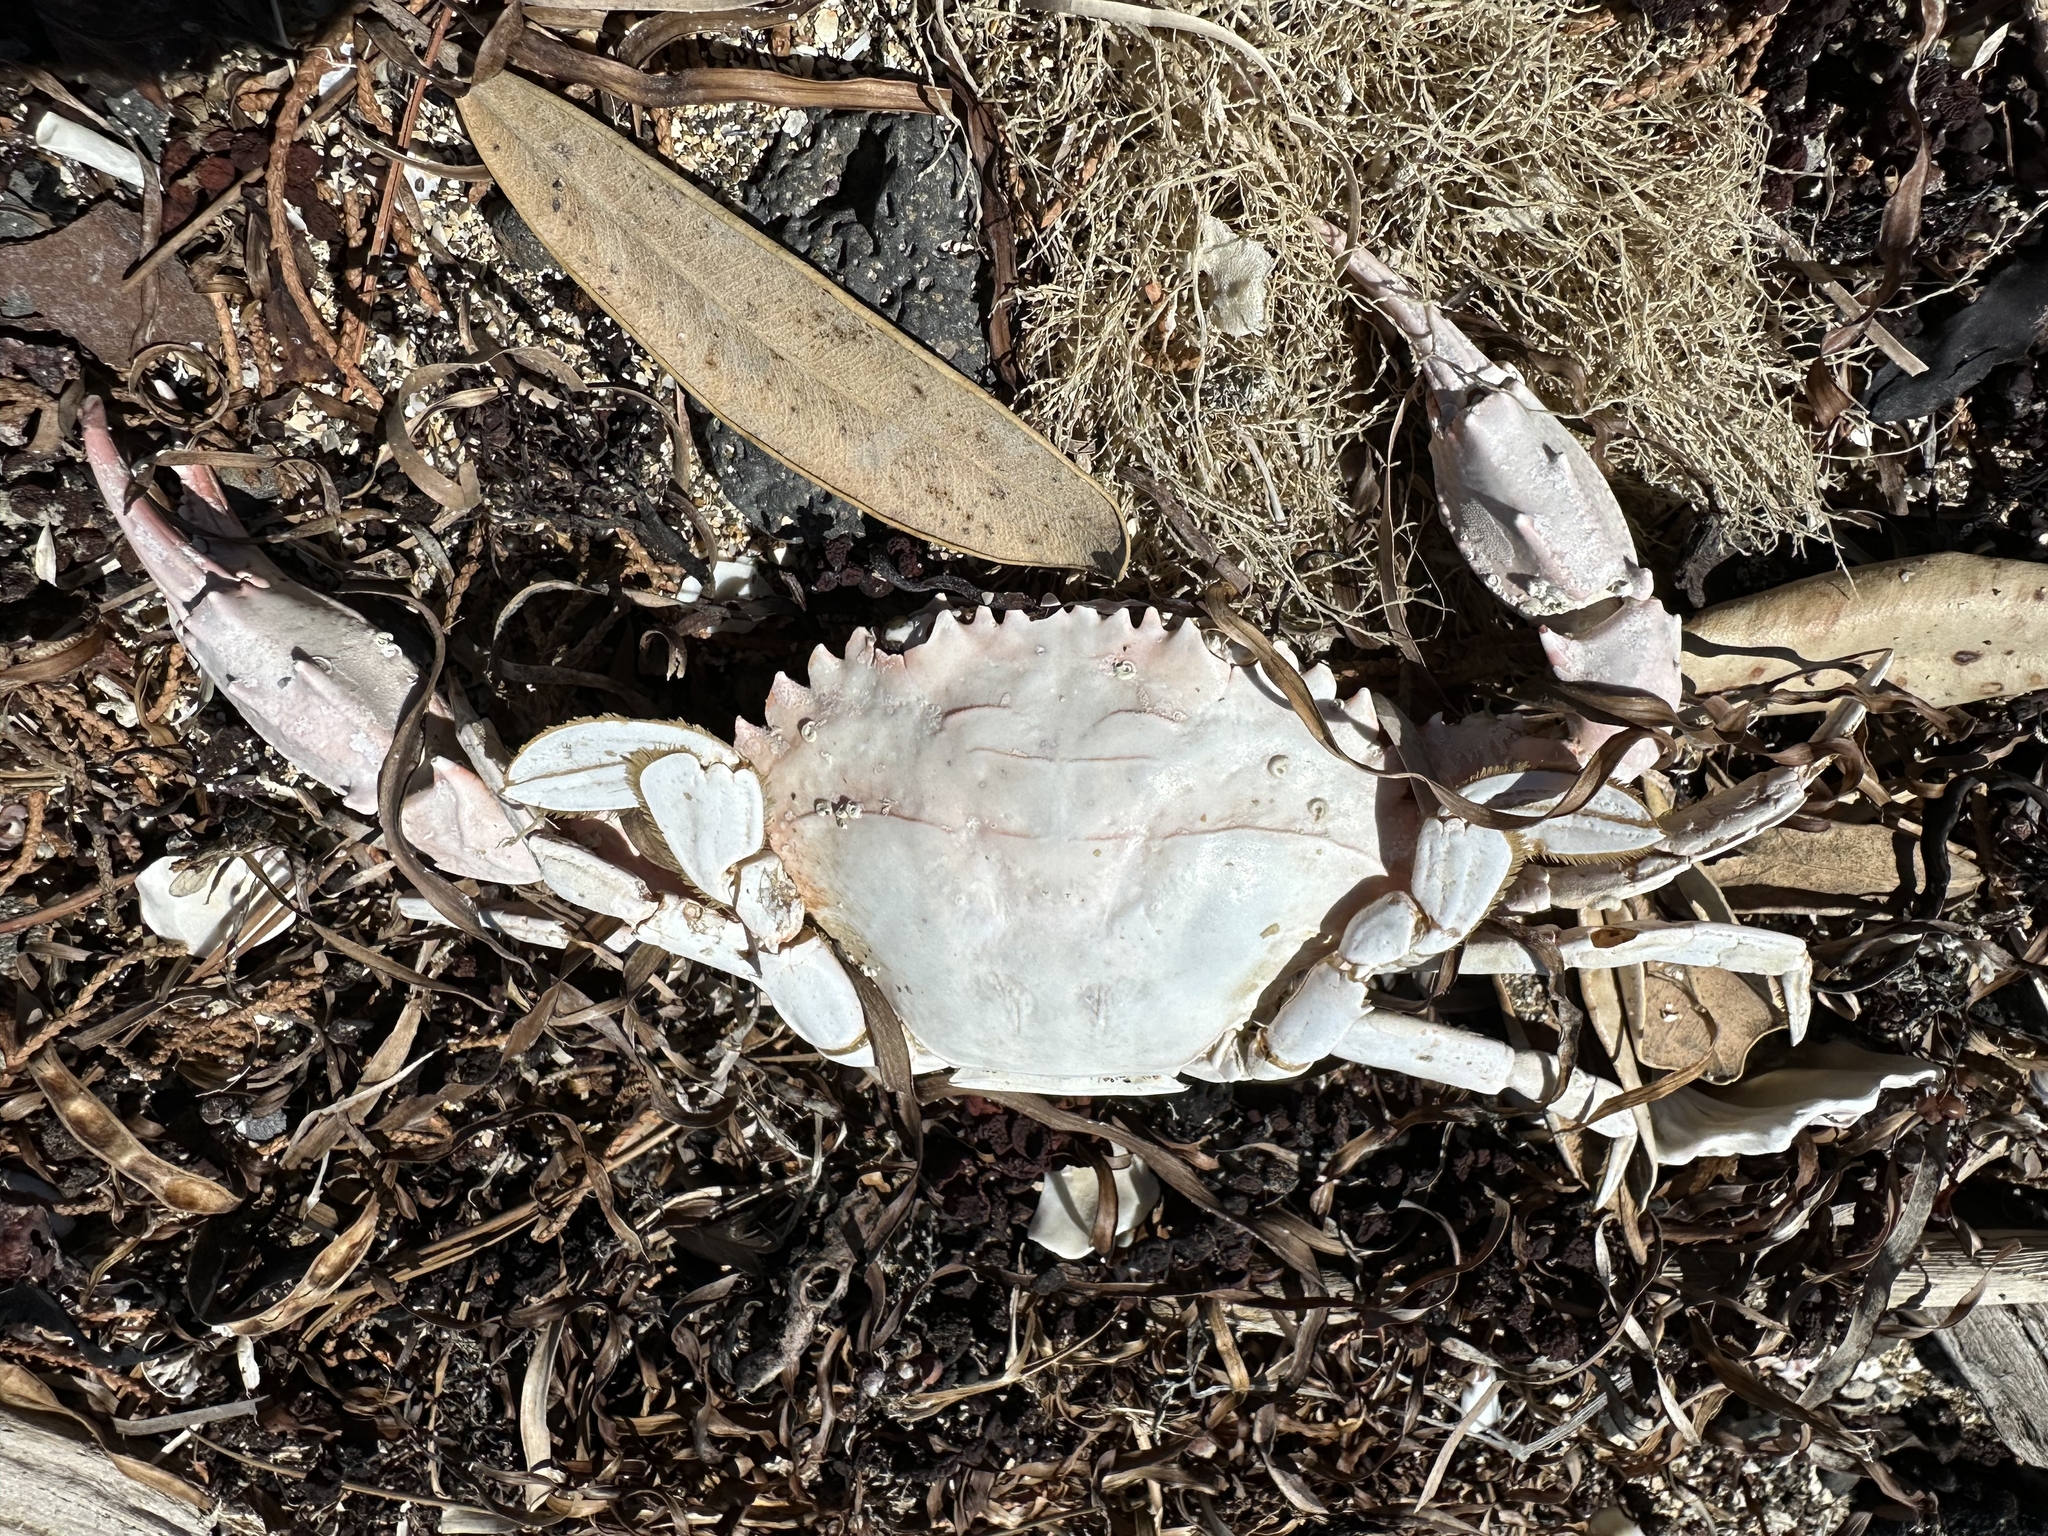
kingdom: Animalia
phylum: Arthropoda
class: Malacostraca
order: Decapoda
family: Portunidae
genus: Charybdis
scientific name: Charybdis japonica
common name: Asian paddle crab
